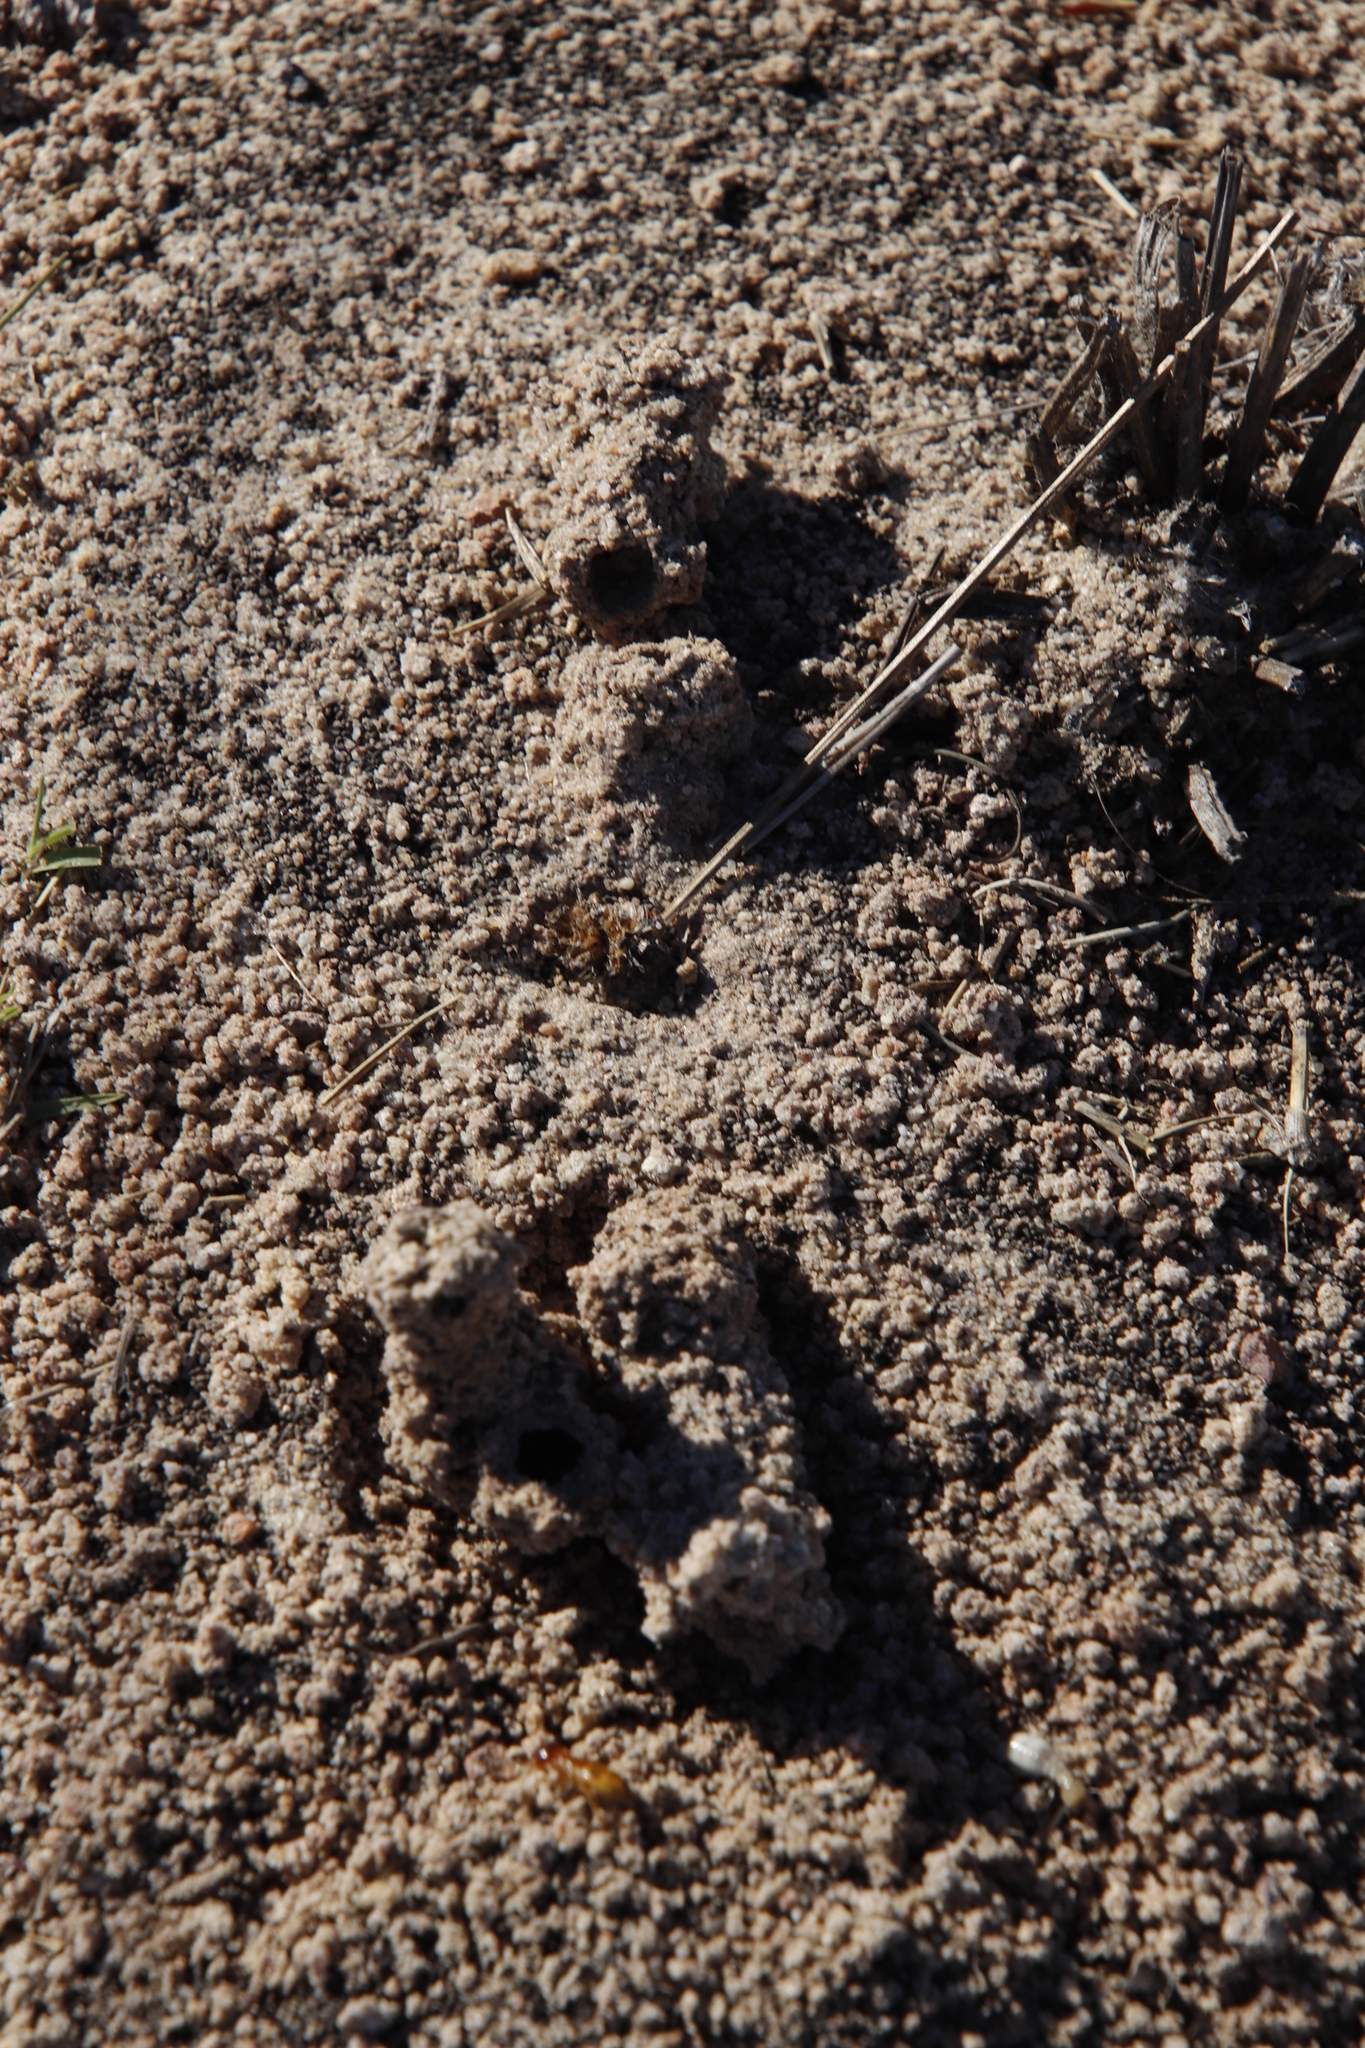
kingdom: Animalia
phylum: Arthropoda
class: Insecta
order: Blattodea
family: Hodotermitidae
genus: Microhodotermes
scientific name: Microhodotermes viator
